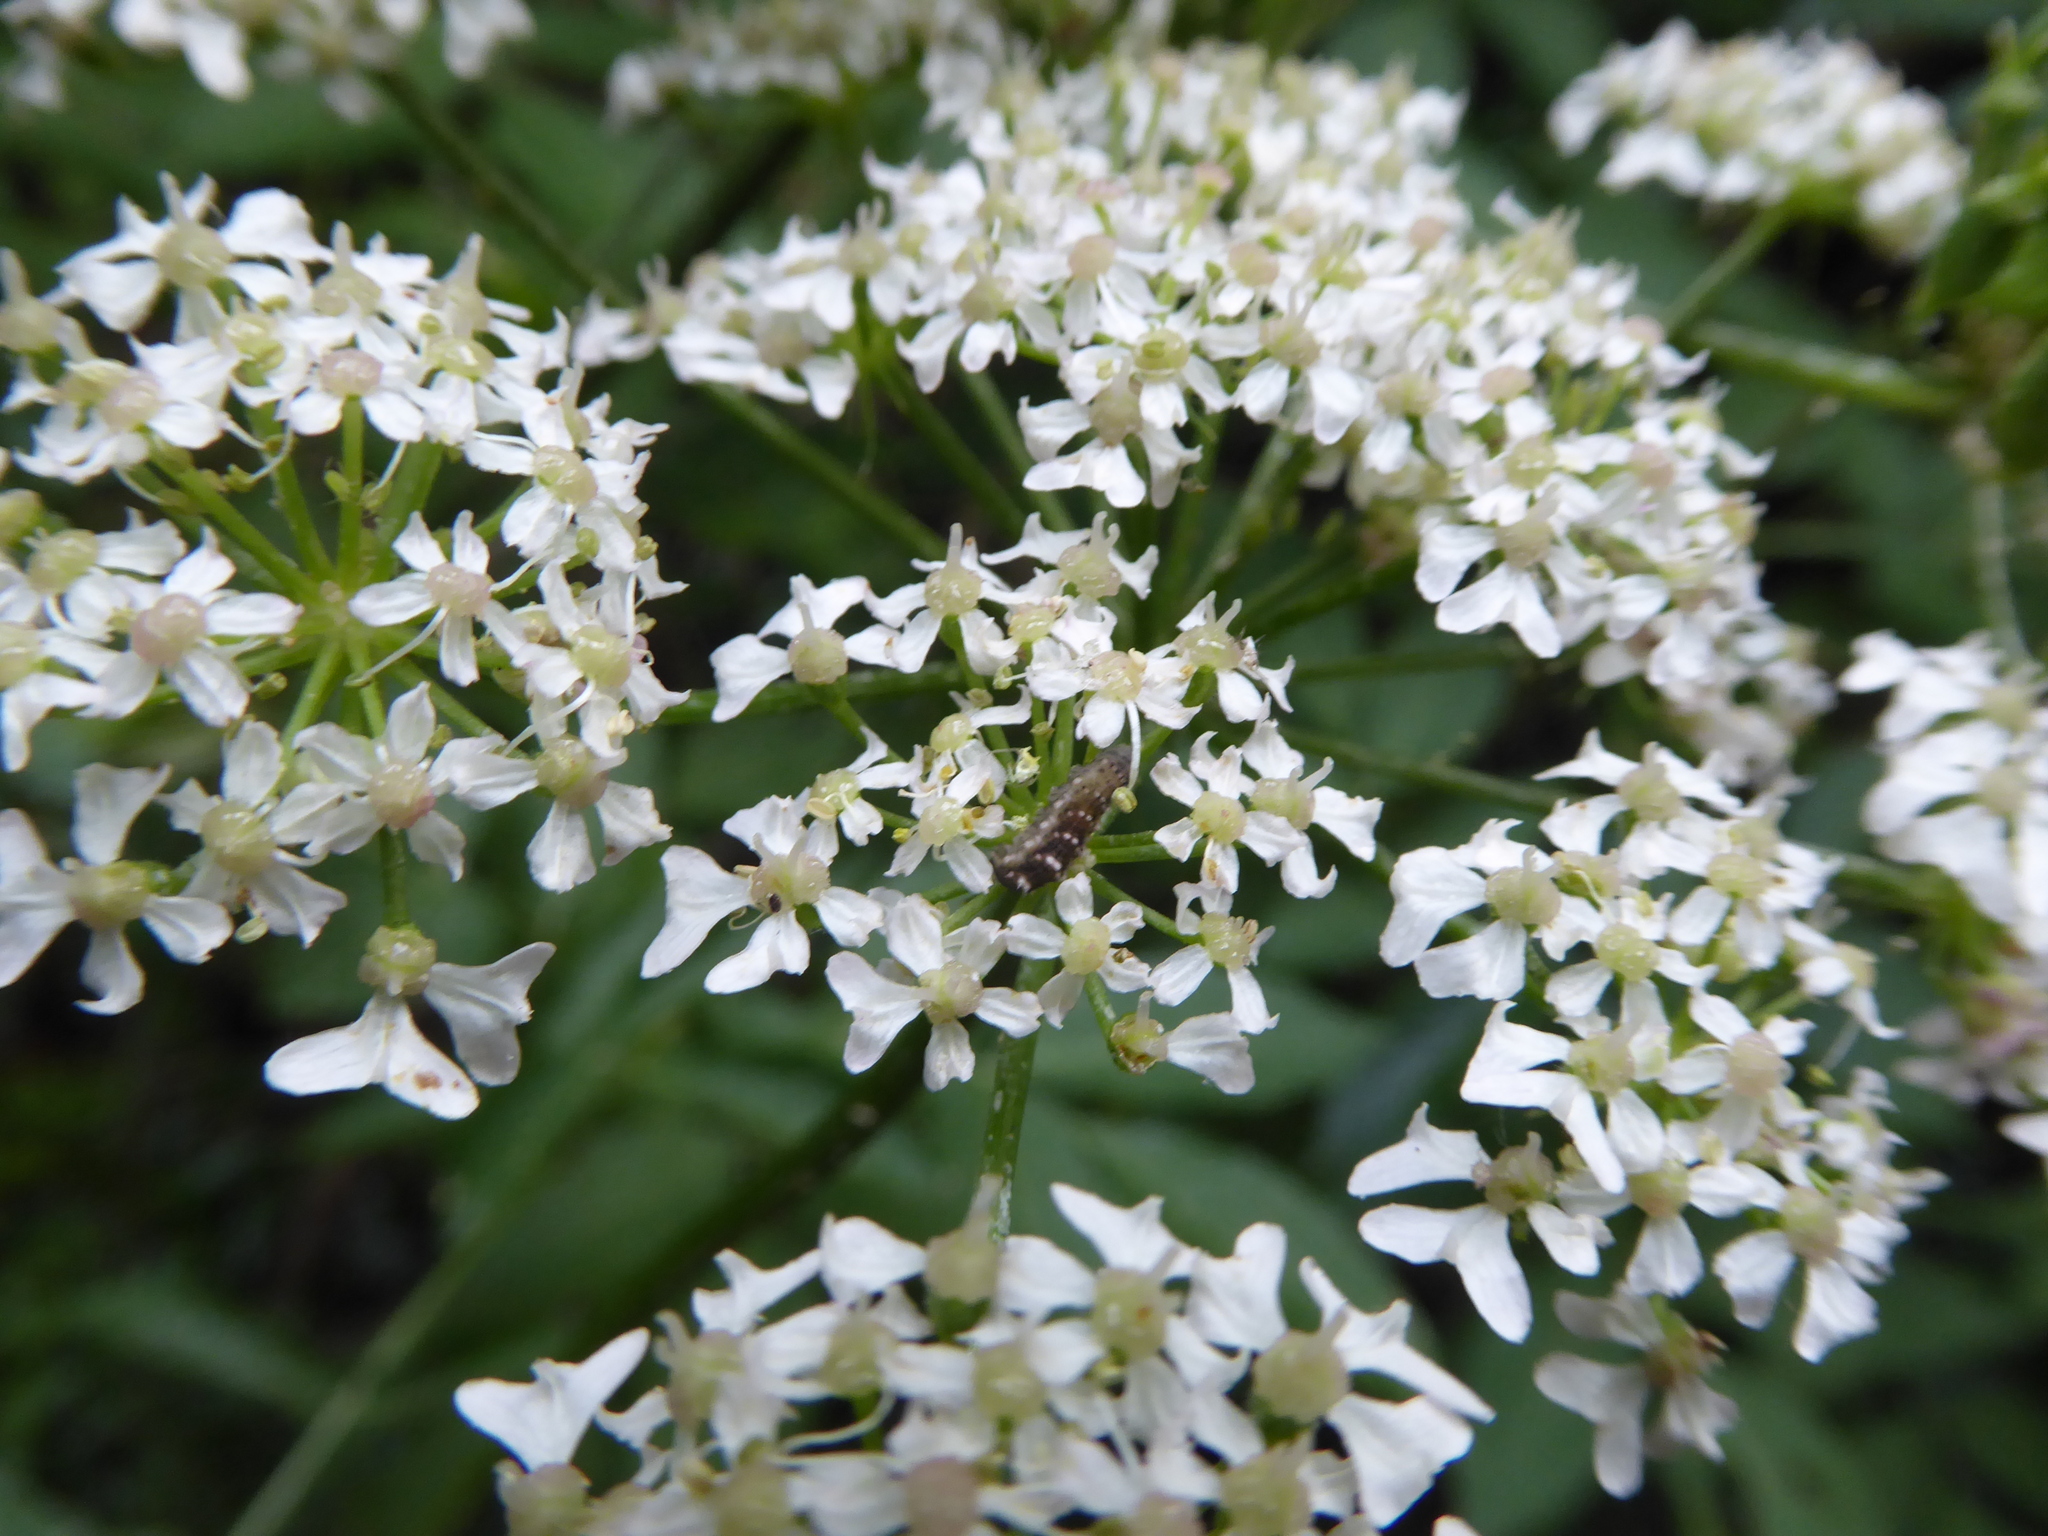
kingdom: Animalia
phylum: Arthropoda
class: Insecta
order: Diptera
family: Syrphidae
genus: Eupeodes
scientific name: Eupeodes
